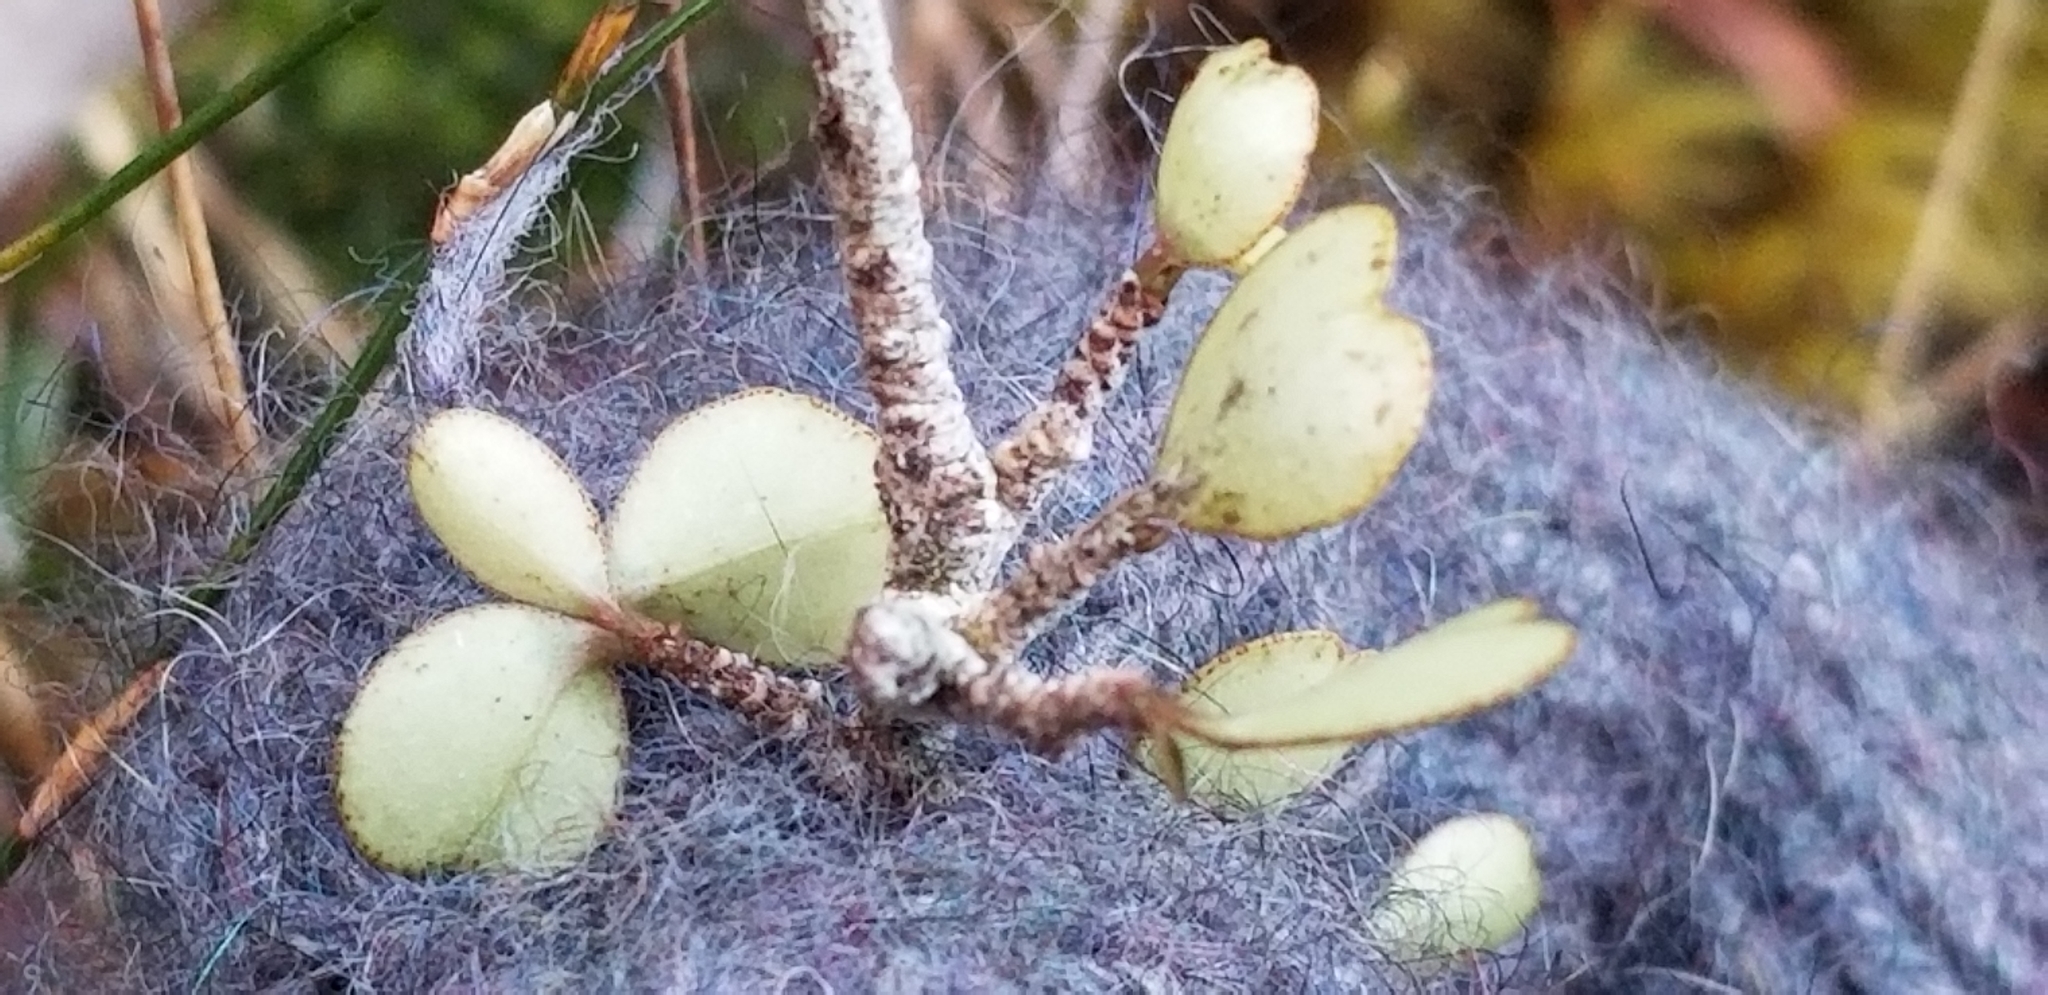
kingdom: Plantae
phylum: Tracheophyta
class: Magnoliopsida
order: Ericales
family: Primulaceae
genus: Myrsine
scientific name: Myrsine divaricata
